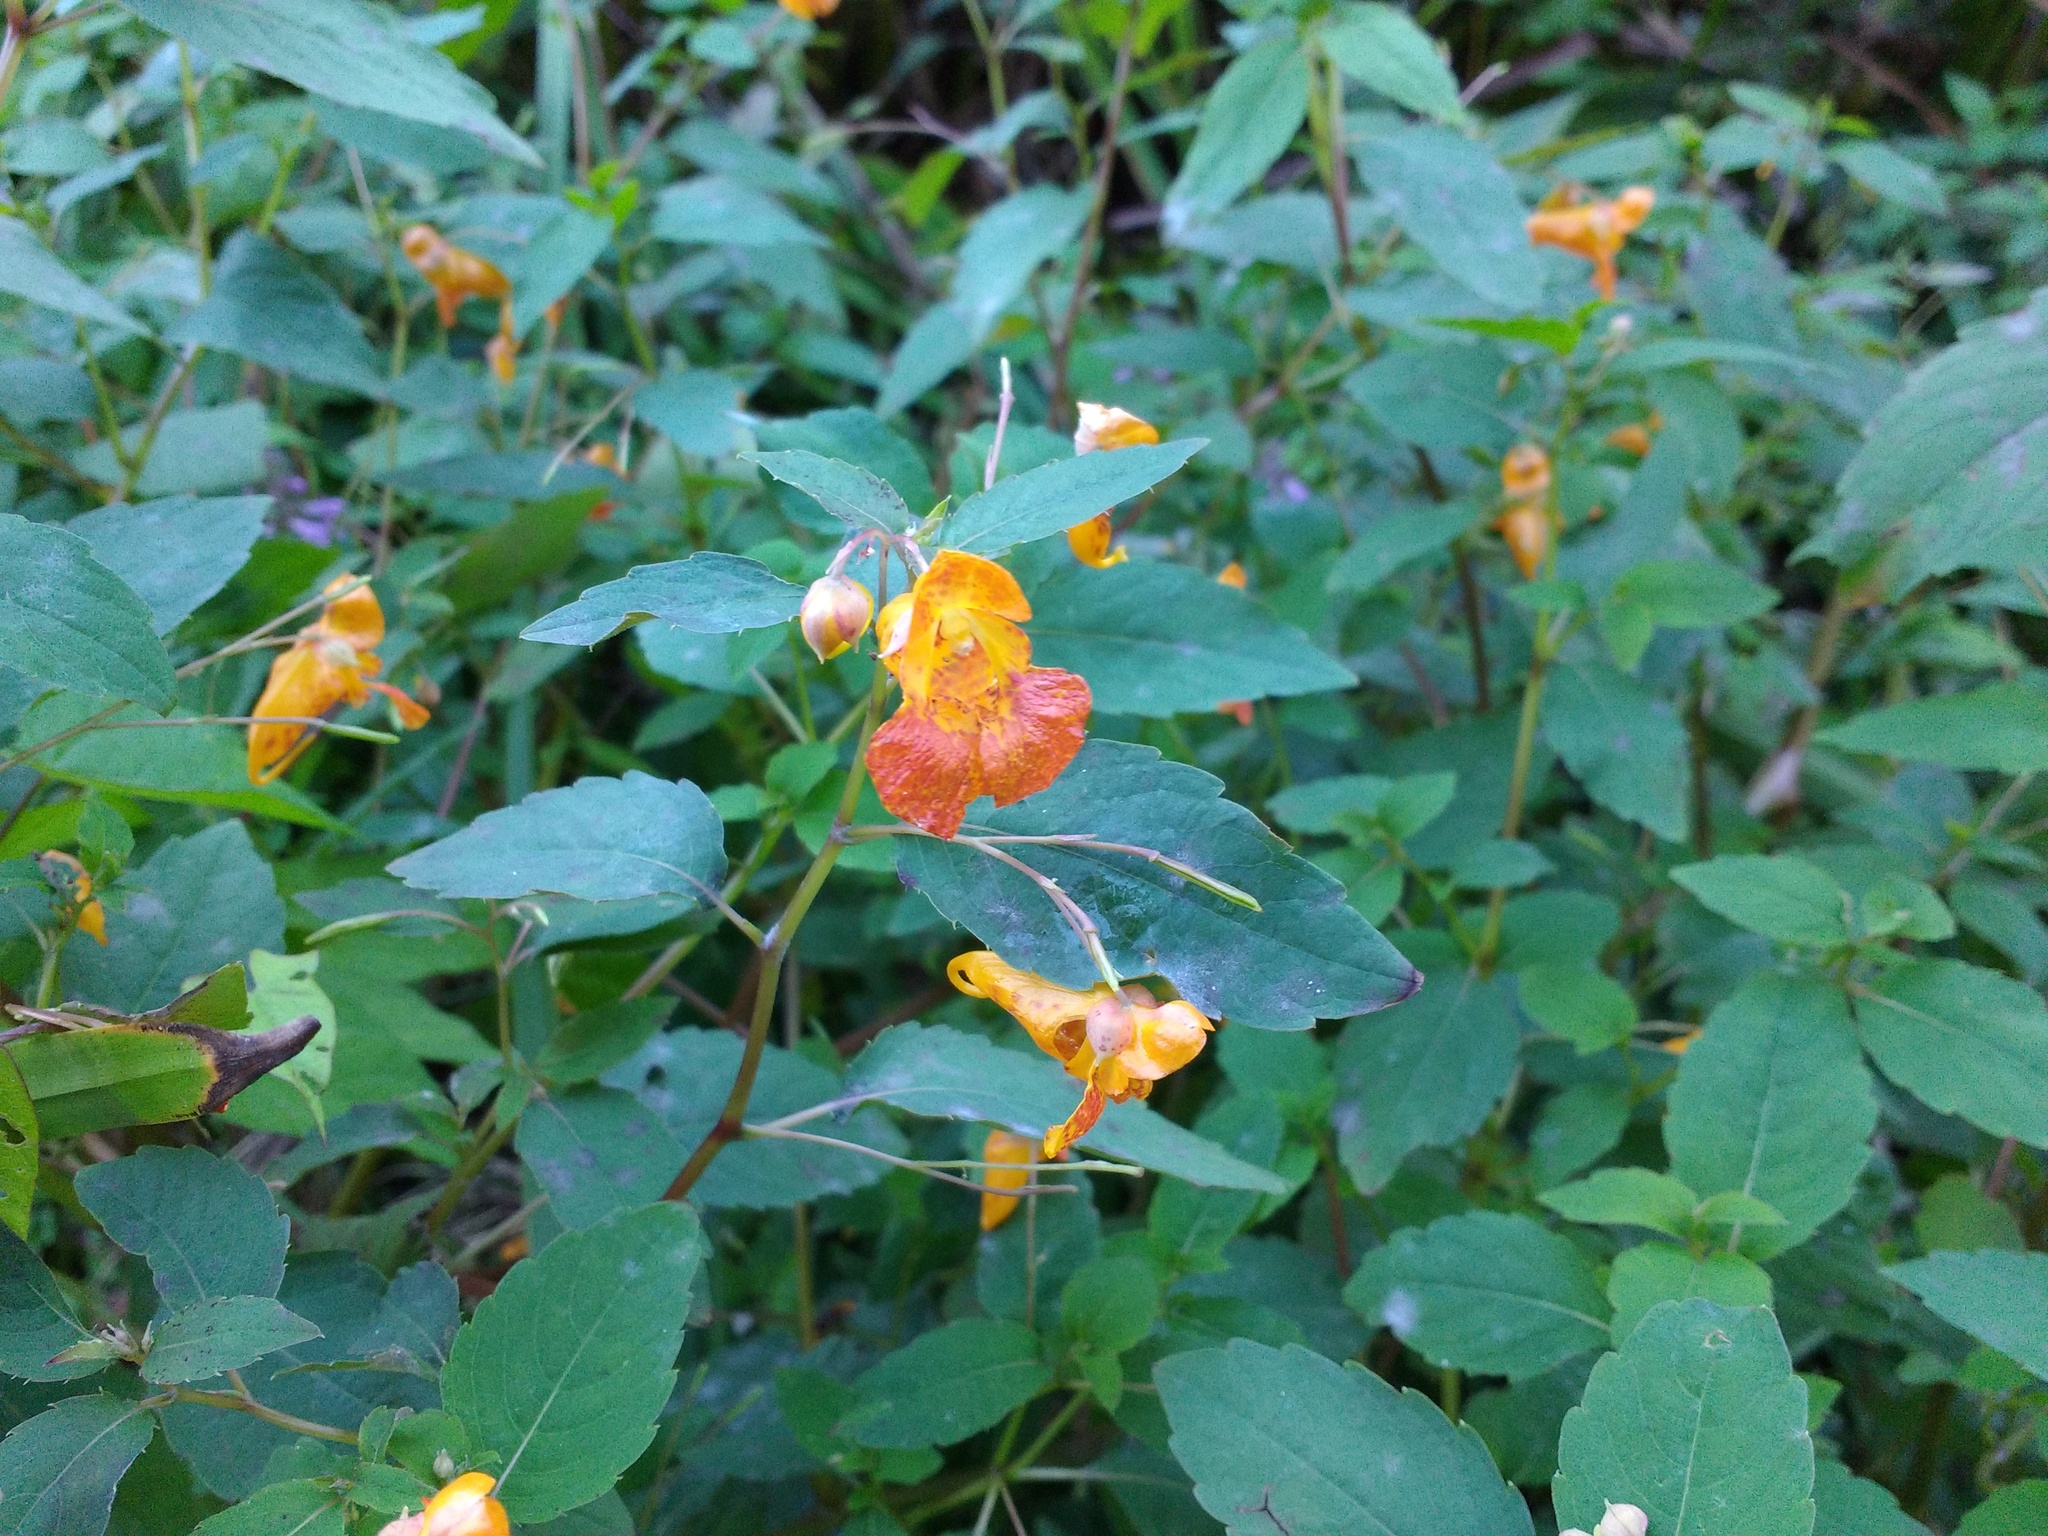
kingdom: Plantae
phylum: Tracheophyta
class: Magnoliopsida
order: Ericales
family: Balsaminaceae
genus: Impatiens
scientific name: Impatiens capensis
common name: Orange balsam
